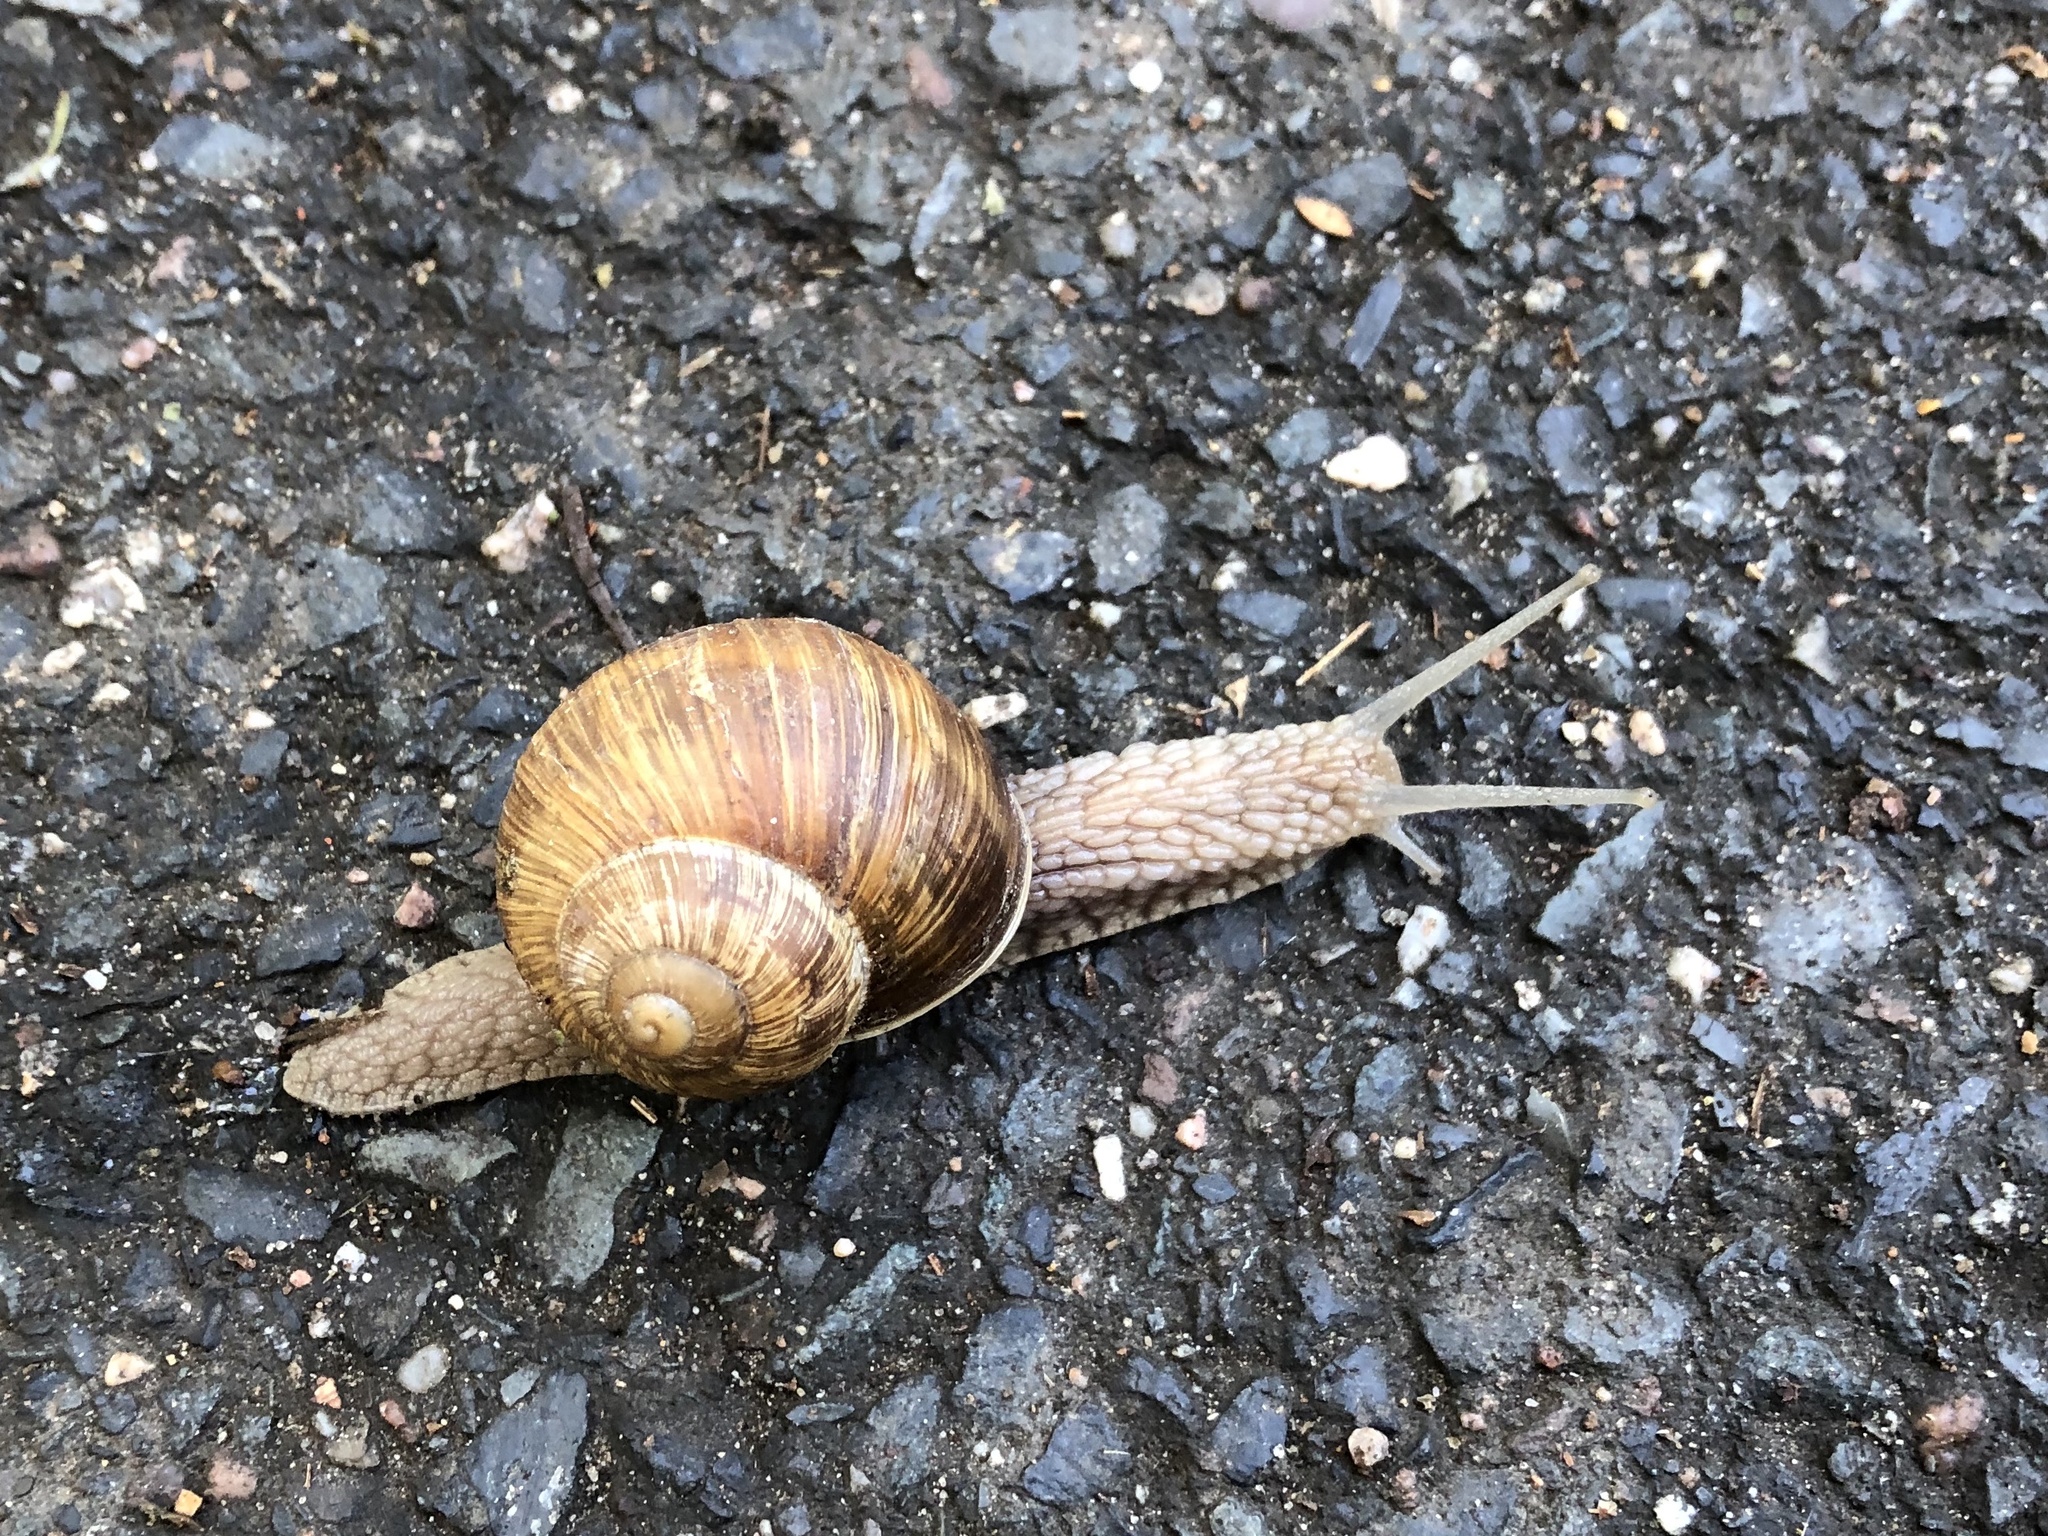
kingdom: Animalia
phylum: Mollusca
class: Gastropoda
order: Stylommatophora
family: Helicidae
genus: Helix
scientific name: Helix pomatia
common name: Roman snail
